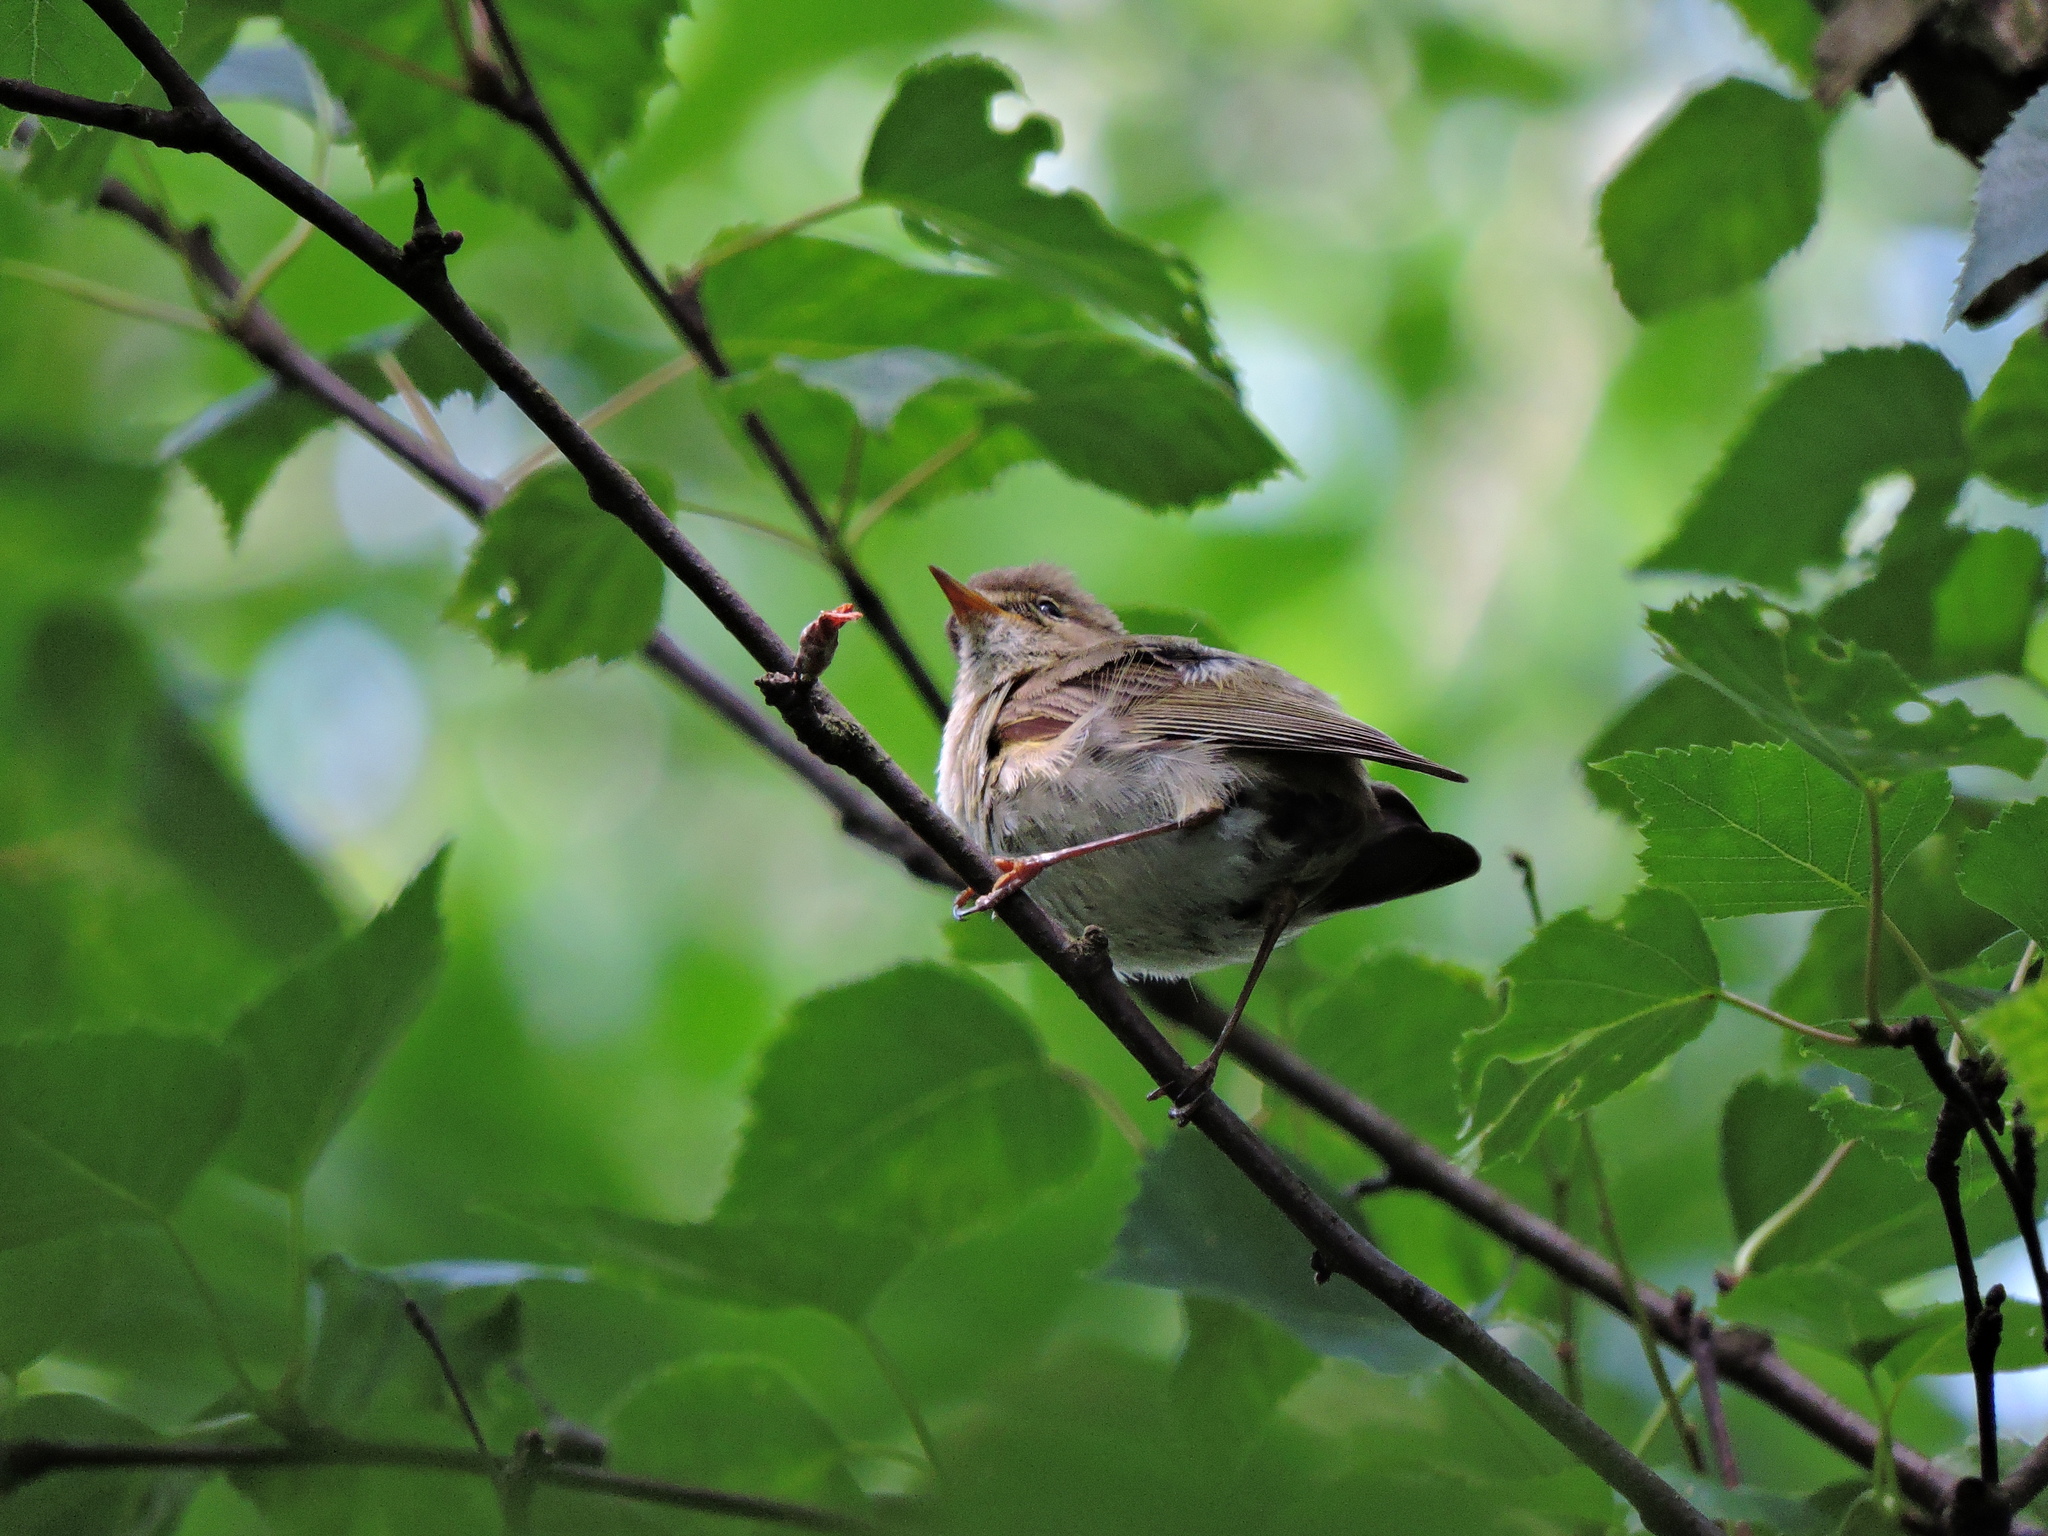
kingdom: Animalia
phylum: Chordata
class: Aves
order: Passeriformes
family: Phylloscopidae
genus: Phylloscopus
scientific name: Phylloscopus collybita
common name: Common chiffchaff
